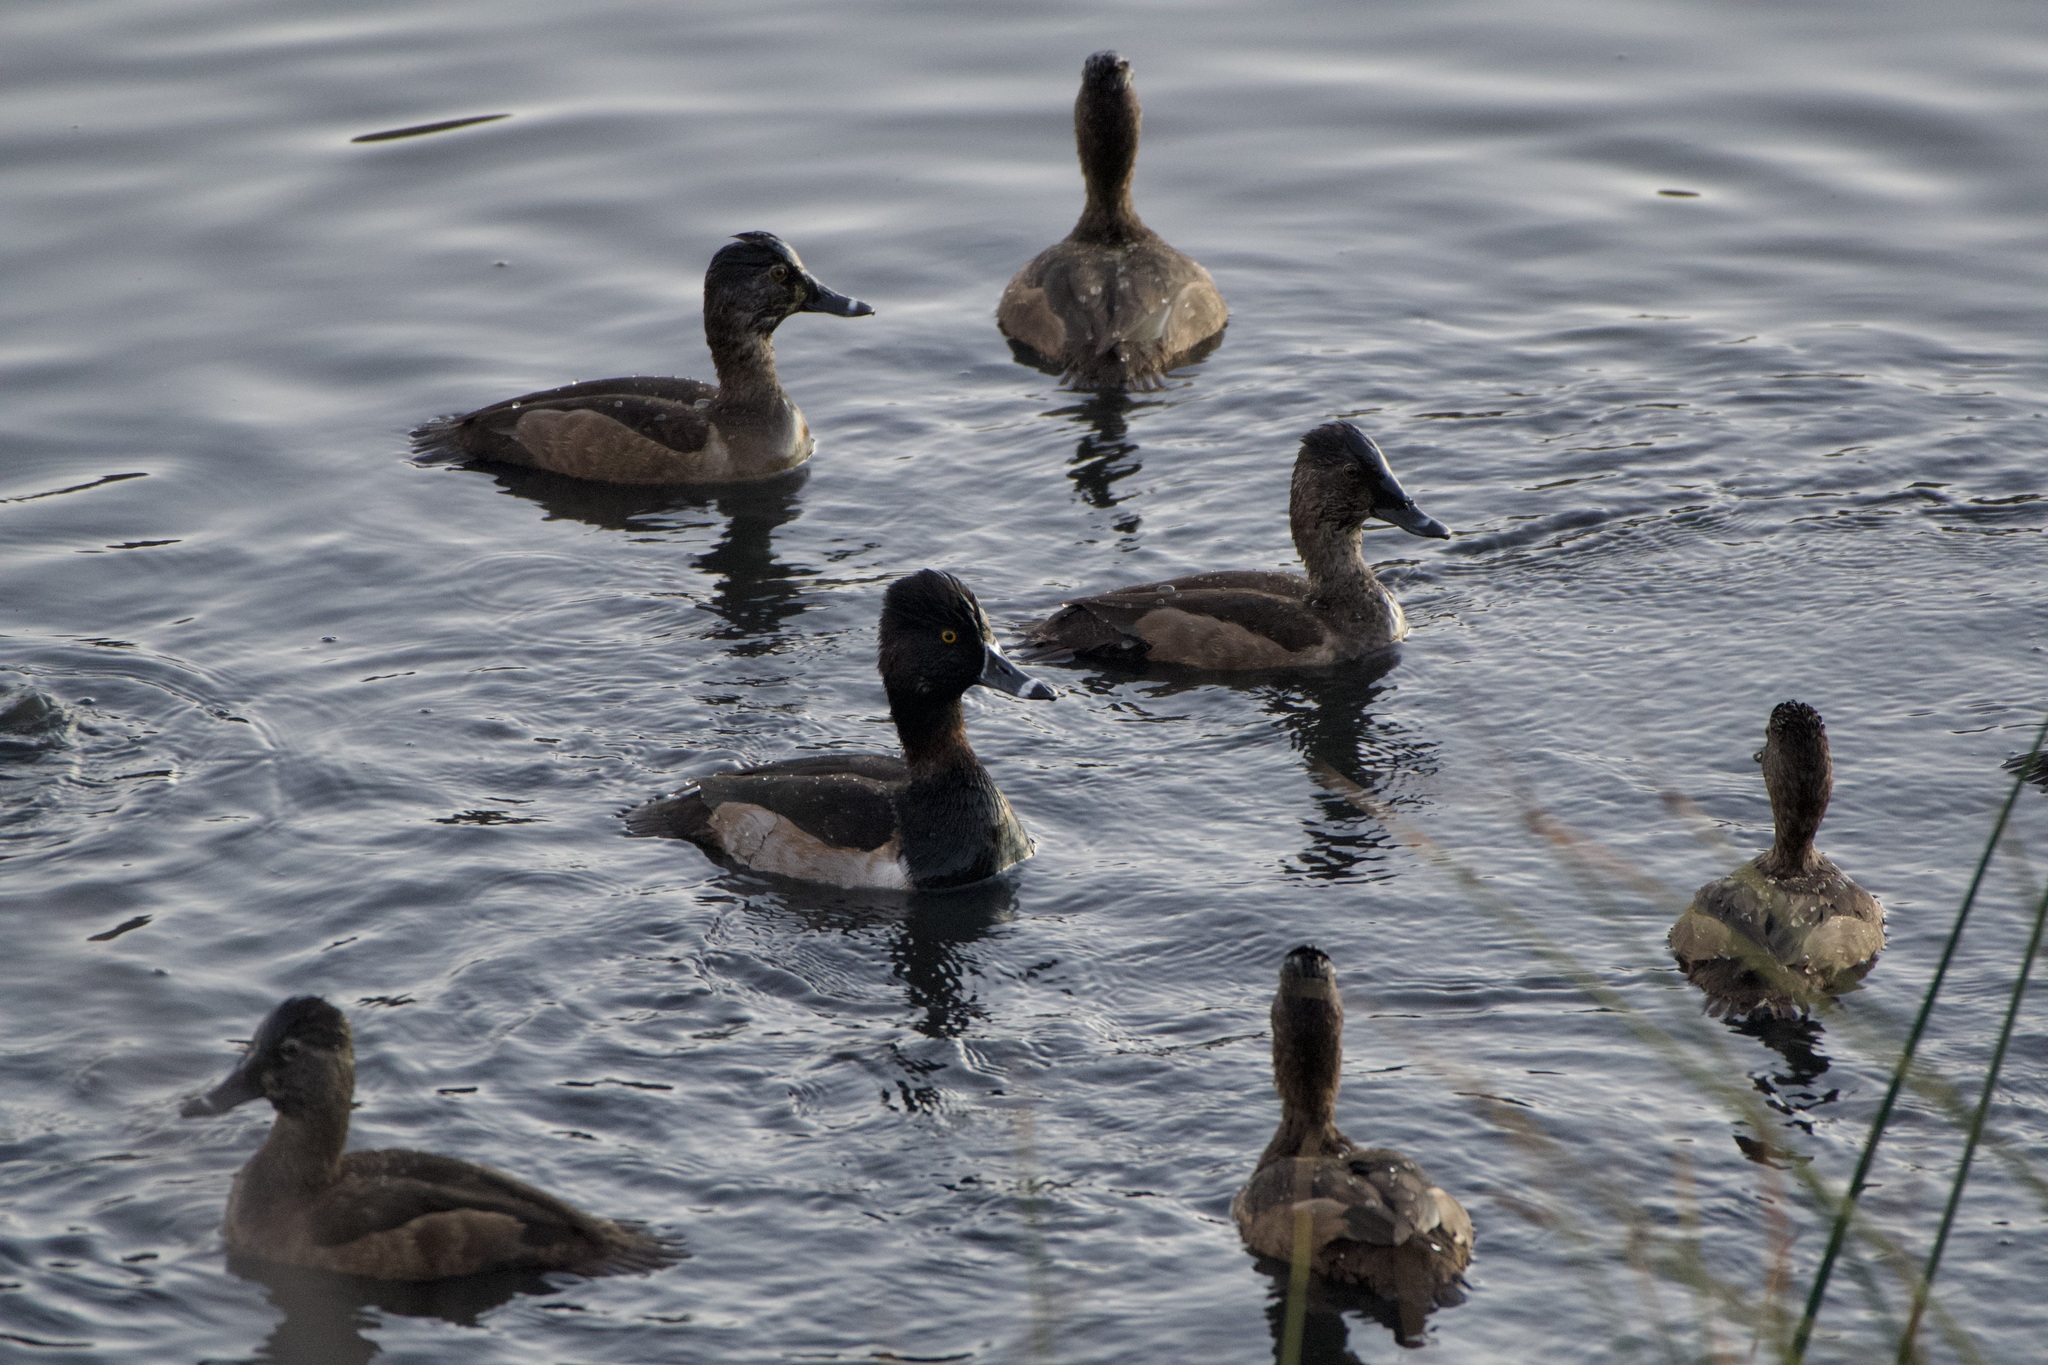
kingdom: Animalia
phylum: Chordata
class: Aves
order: Anseriformes
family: Anatidae
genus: Aythya
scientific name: Aythya collaris
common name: Ring-necked duck
